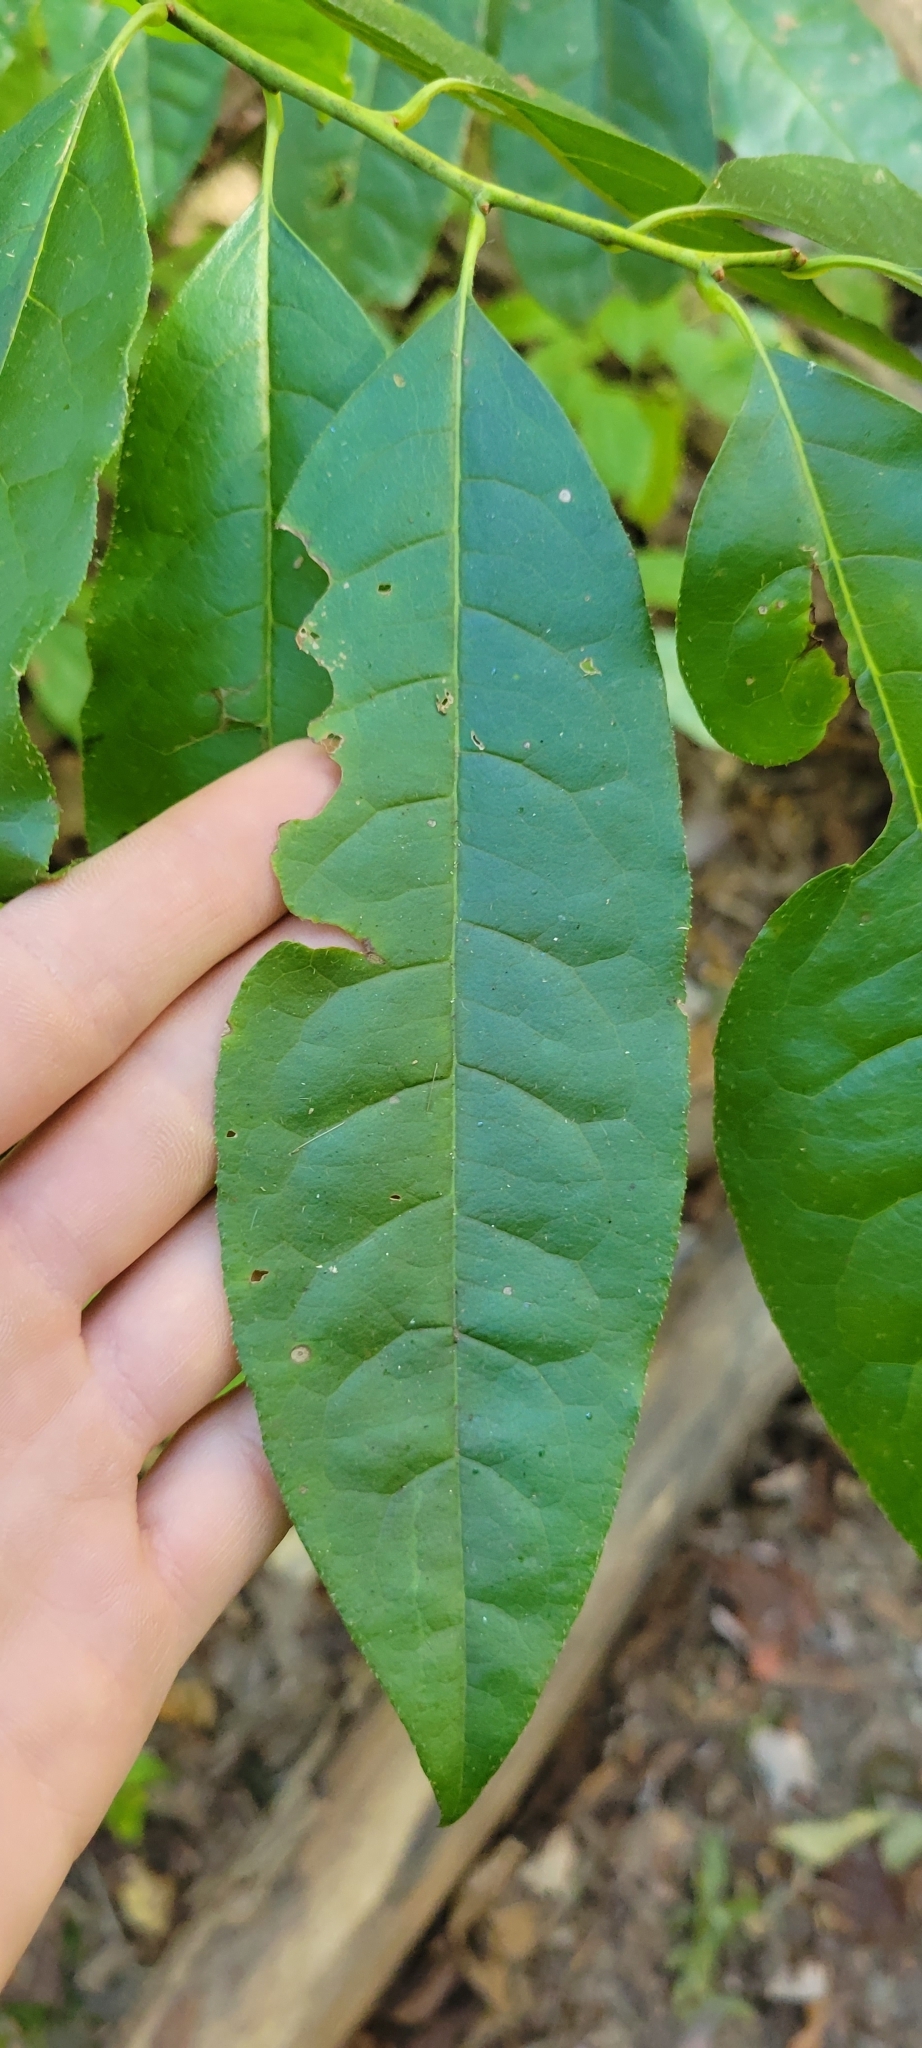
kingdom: Plantae
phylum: Tracheophyta
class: Magnoliopsida
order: Ericales
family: Ericaceae
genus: Oxydendrum
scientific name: Oxydendrum arboreum
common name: Sourwood
